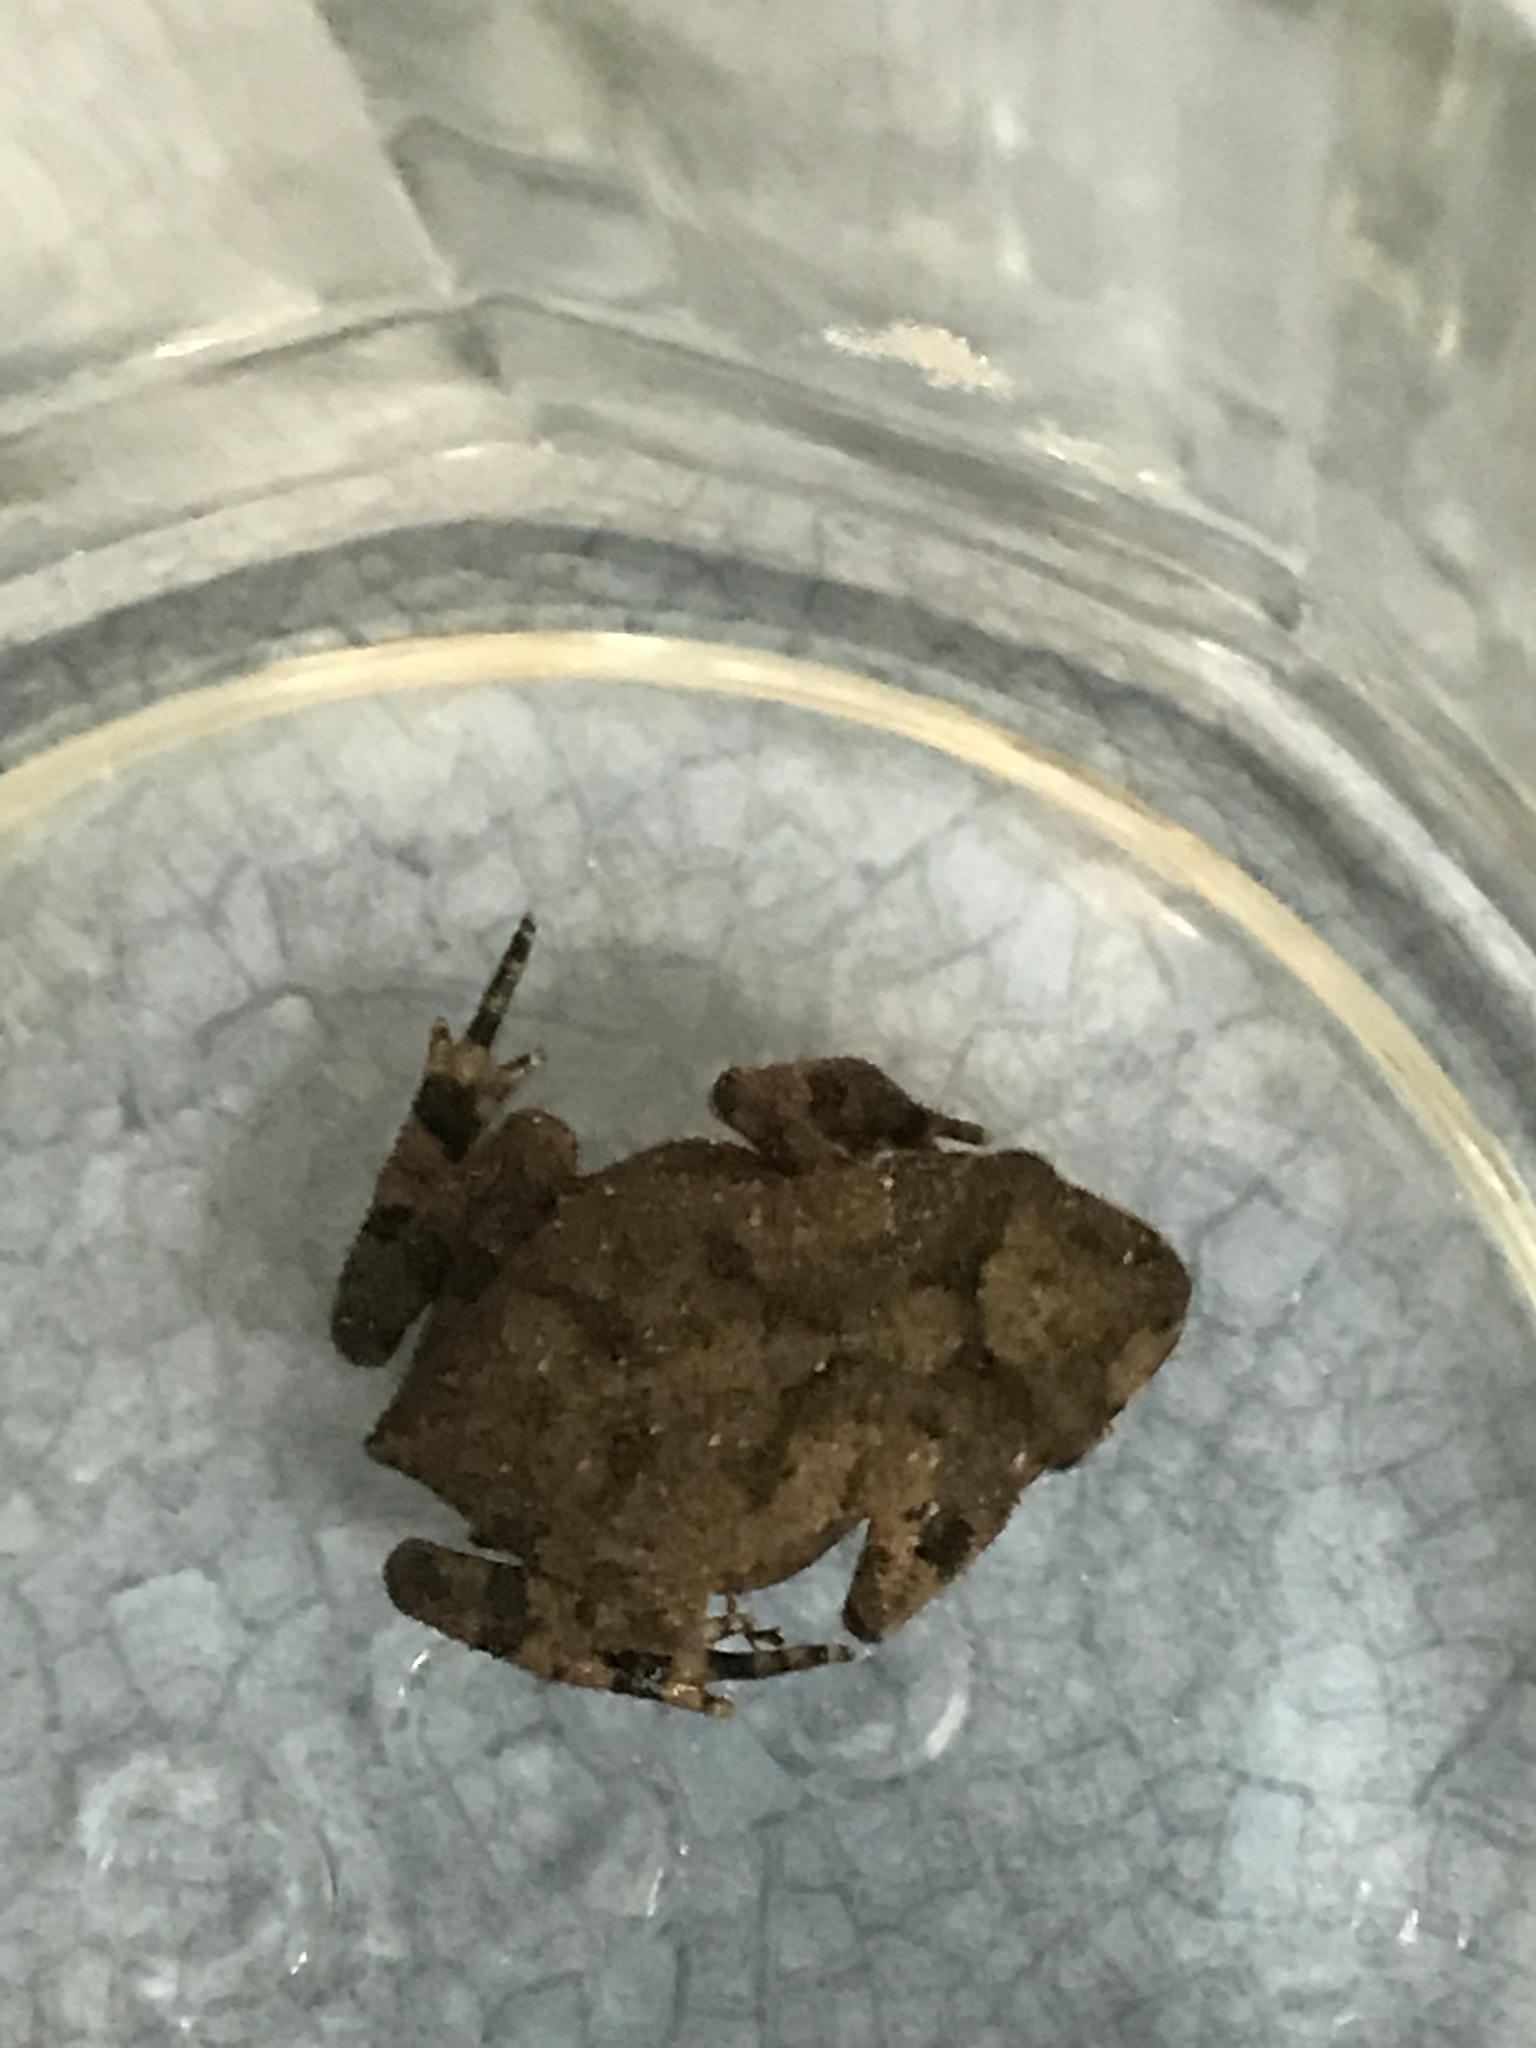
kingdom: Animalia
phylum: Chordata
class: Amphibia
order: Anura
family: Bufonidae
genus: Incilius
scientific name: Incilius nebulifer
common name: Gulf coast toad
